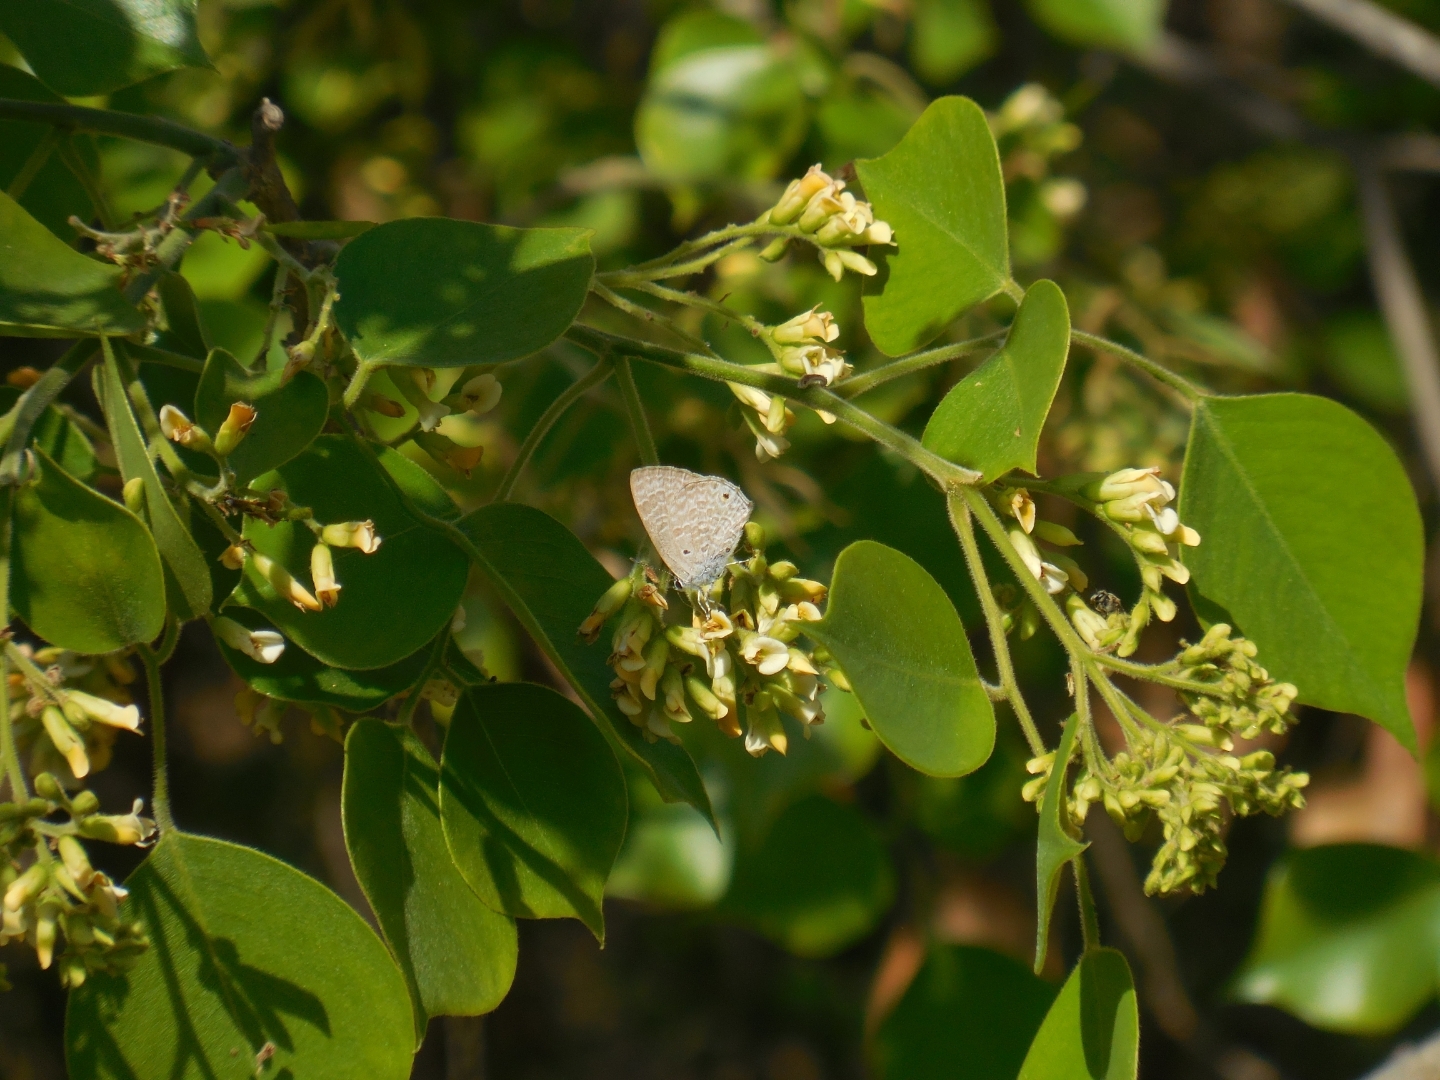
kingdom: Animalia
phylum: Arthropoda
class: Insecta
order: Lepidoptera
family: Lycaenidae
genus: Anthene
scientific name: Anthene lycaenina
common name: Pointed ciliate blue
